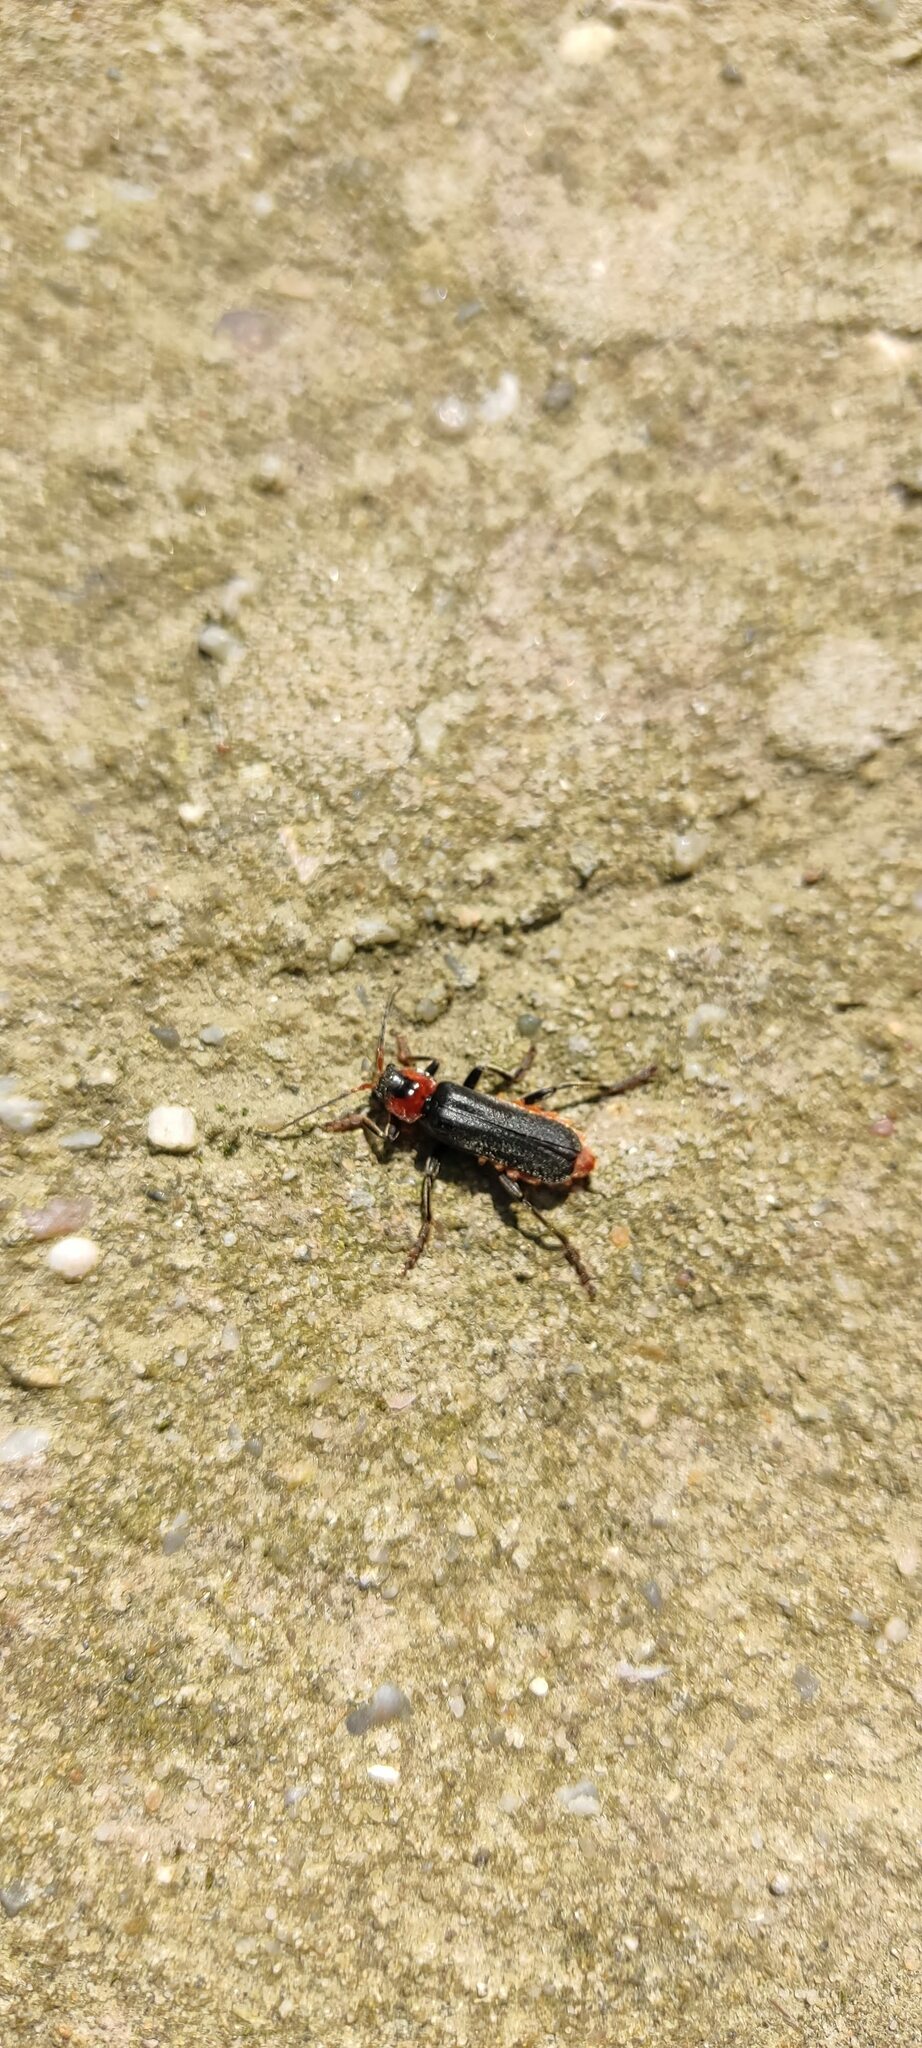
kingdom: Animalia
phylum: Arthropoda
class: Insecta
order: Coleoptera
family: Cantharidae
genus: Cantharis
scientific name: Cantharis fusca
